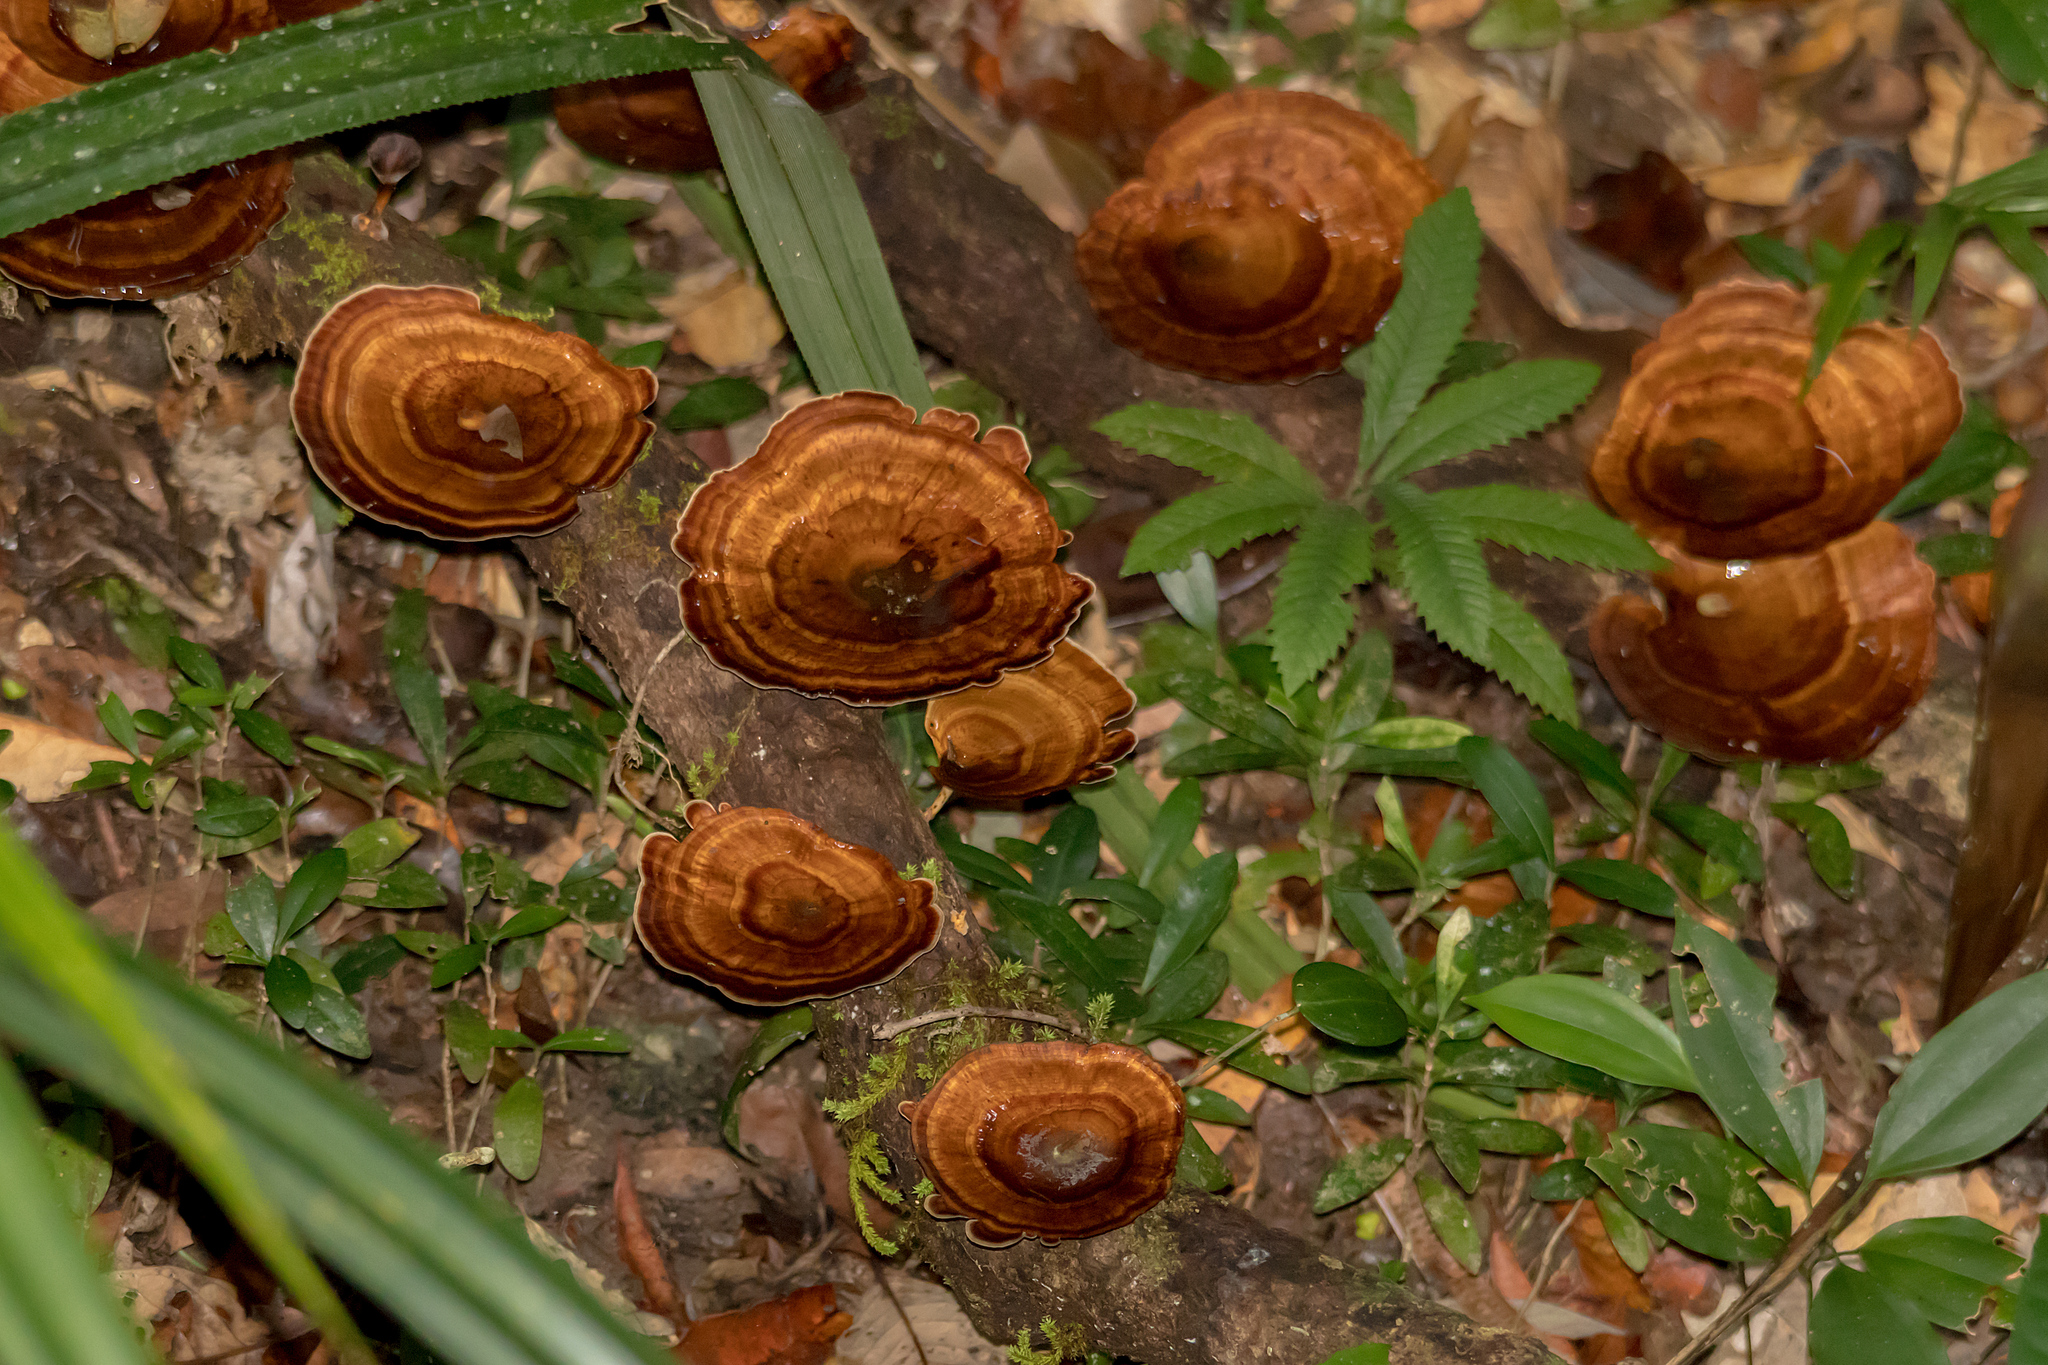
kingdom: Fungi
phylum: Basidiomycota
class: Agaricomycetes
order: Polyporales
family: Polyporaceae
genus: Microporus
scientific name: Microporus xanthopus
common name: Yellow-stemmed micropore
